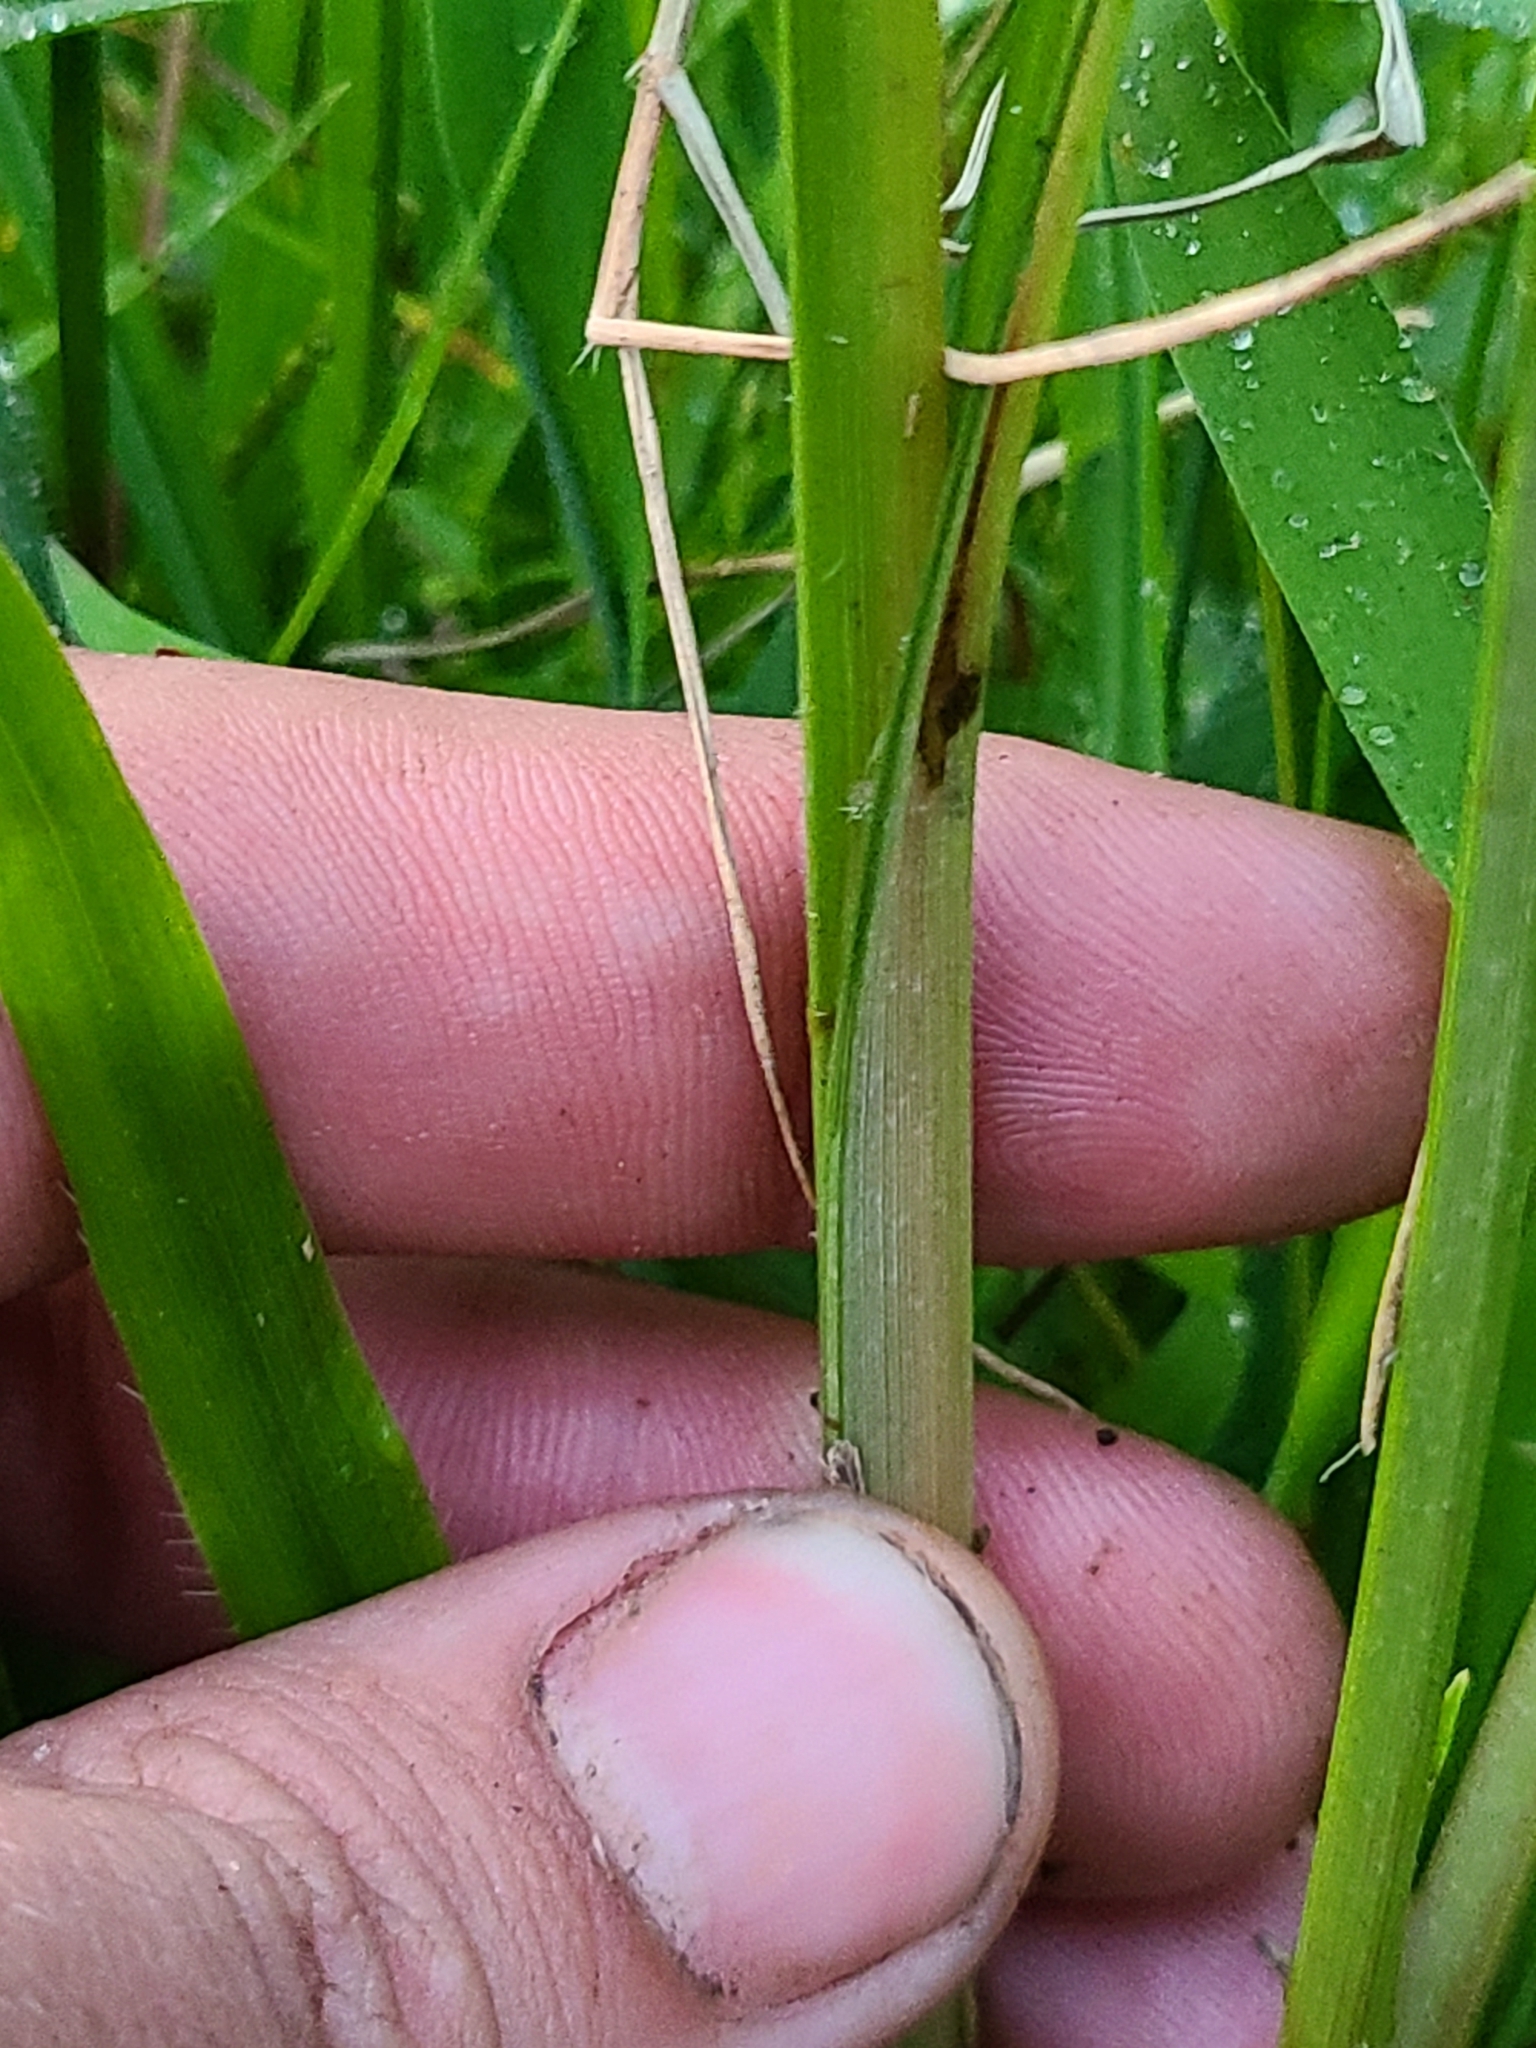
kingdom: Plantae
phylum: Tracheophyta
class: Liliopsida
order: Poales
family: Cyperaceae
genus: Cyperus
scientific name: Cyperus iria
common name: Ricefield flatsedge
